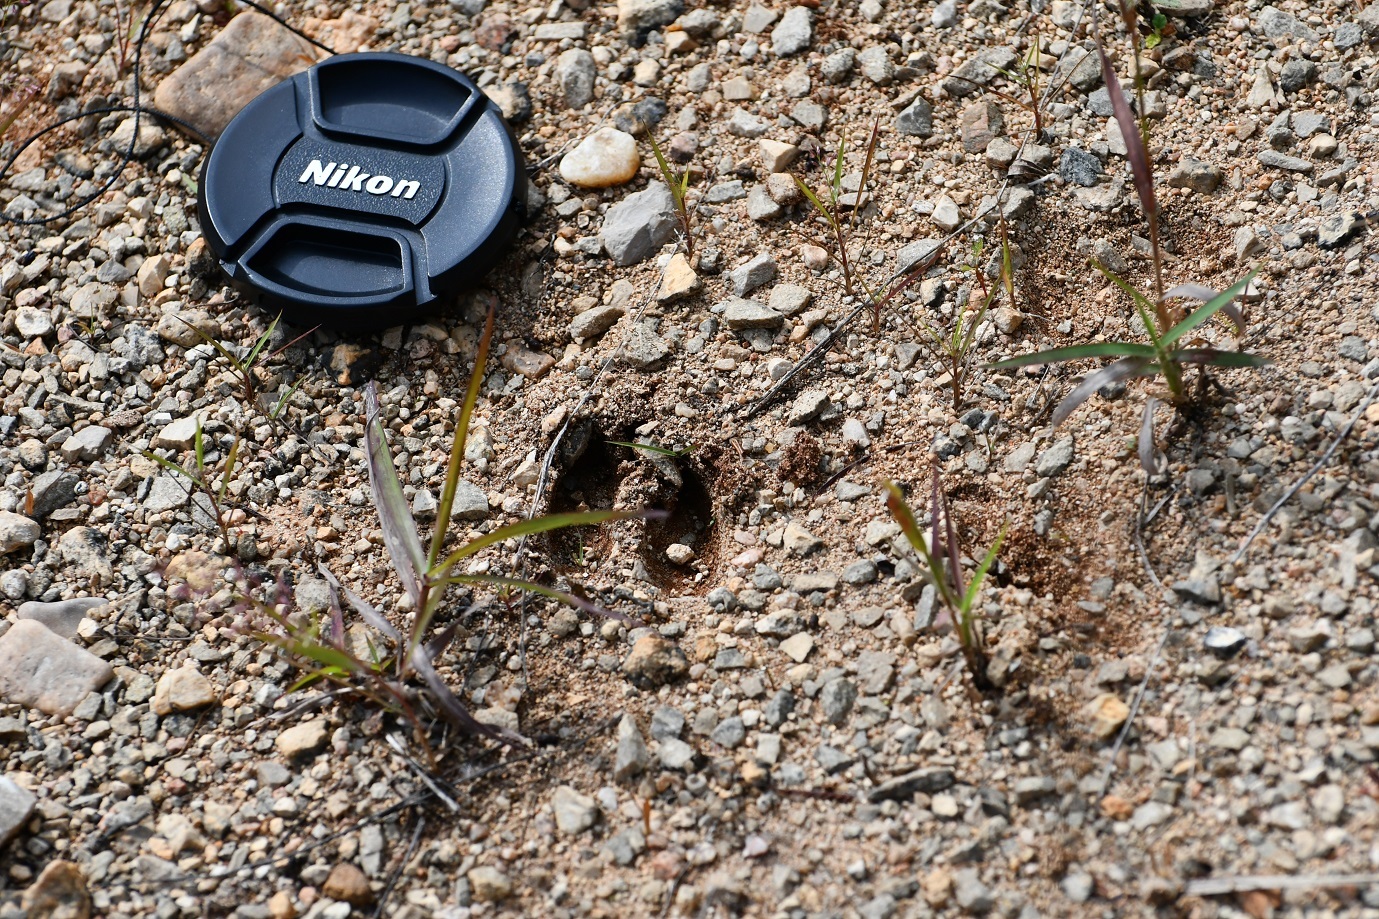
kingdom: Animalia
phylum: Chordata
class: Mammalia
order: Artiodactyla
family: Cervidae
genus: Odocoileus
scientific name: Odocoileus virginianus
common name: White-tailed deer
